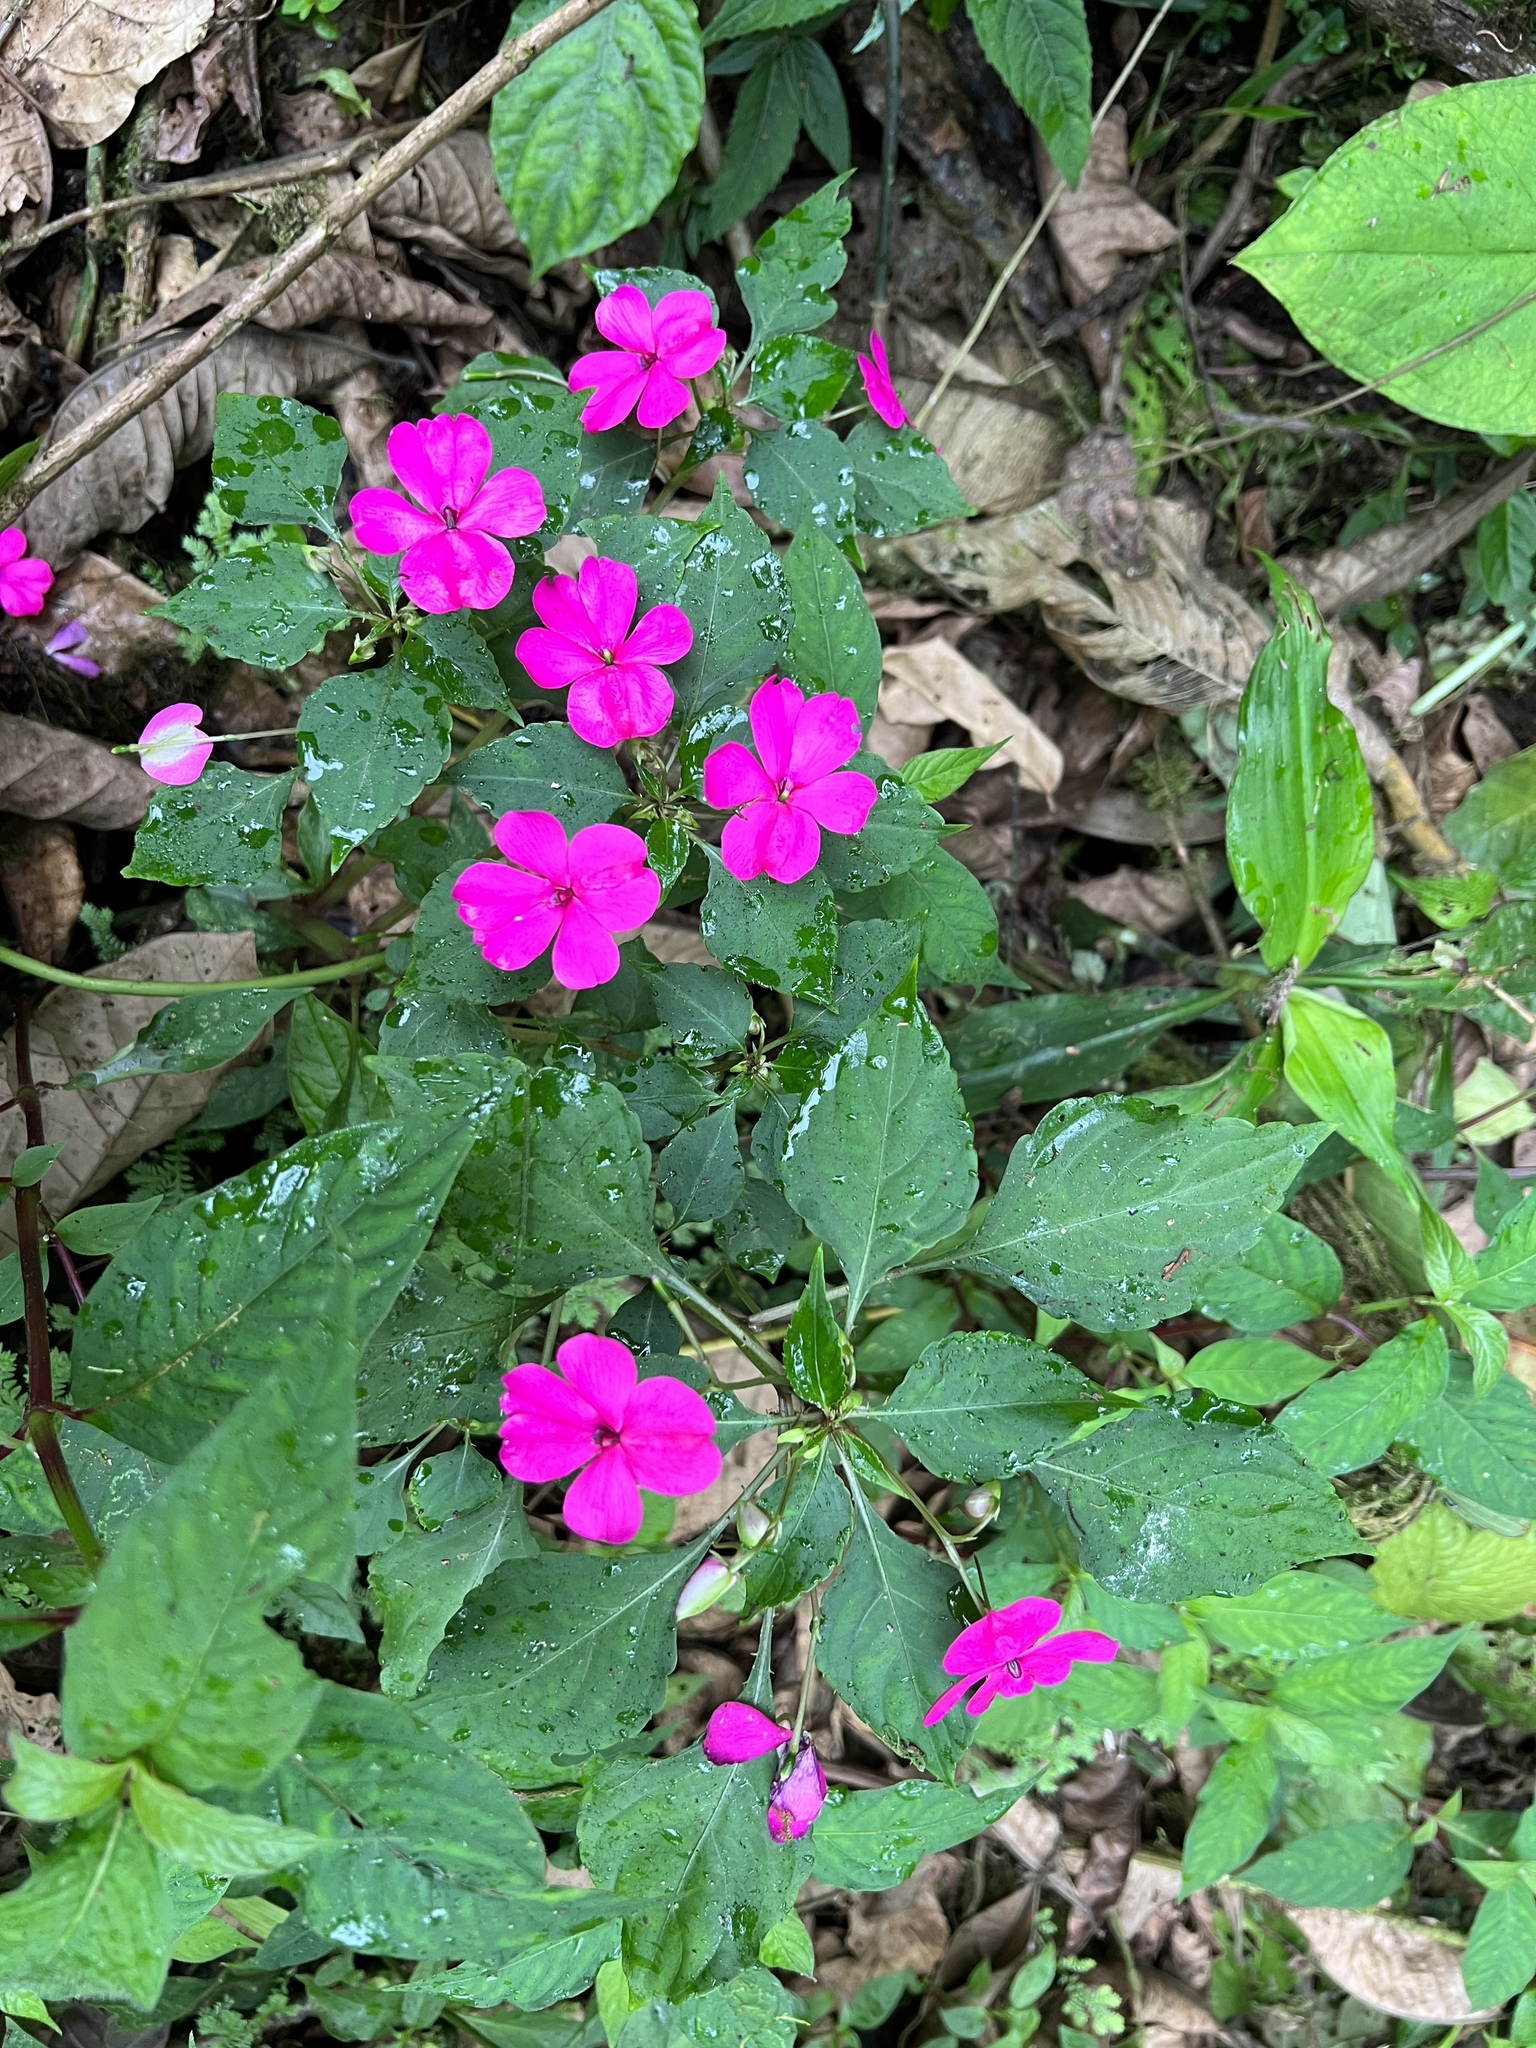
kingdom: Plantae
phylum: Tracheophyta
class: Magnoliopsida
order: Ericales
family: Balsaminaceae
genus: Impatiens
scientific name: Impatiens walleriana
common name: Buzzy lizzy
